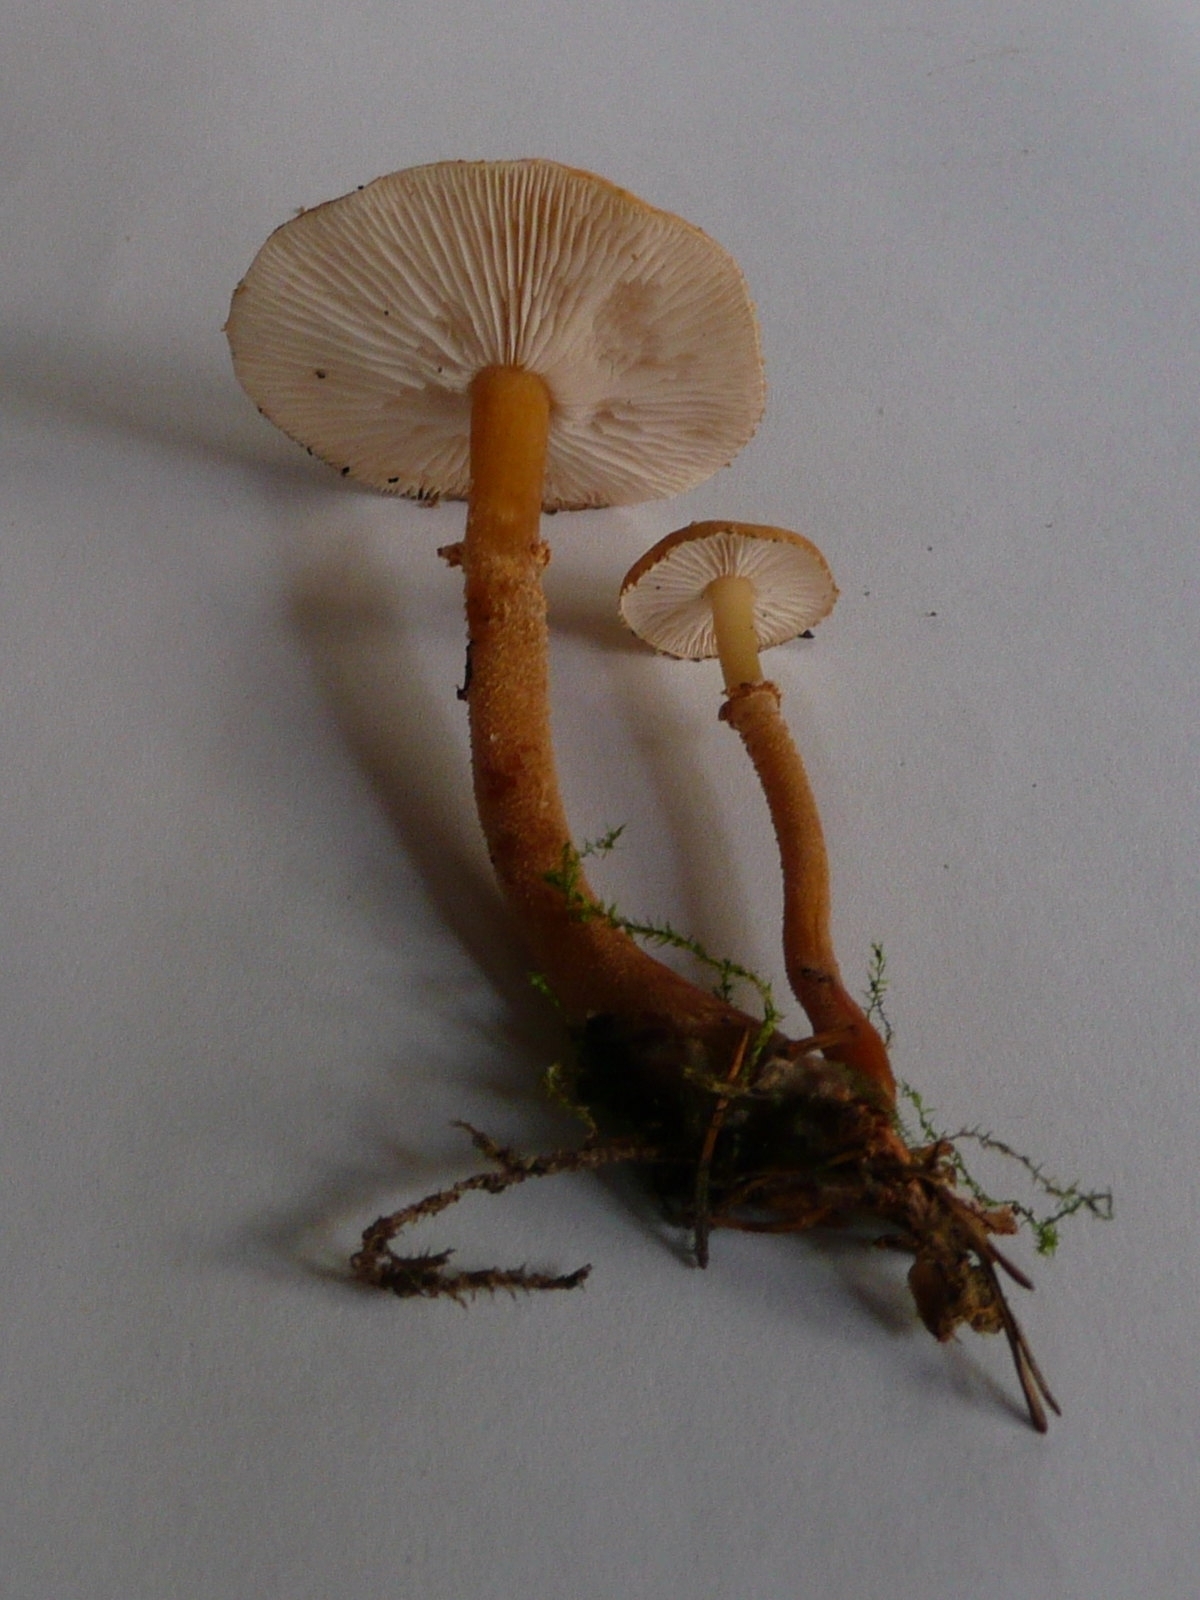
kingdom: Fungi
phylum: Basidiomycota
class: Agaricomycetes
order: Agaricales
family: Tricholomataceae
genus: Cystoderma
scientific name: Cystoderma amianthinum
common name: Earthy powdercap
